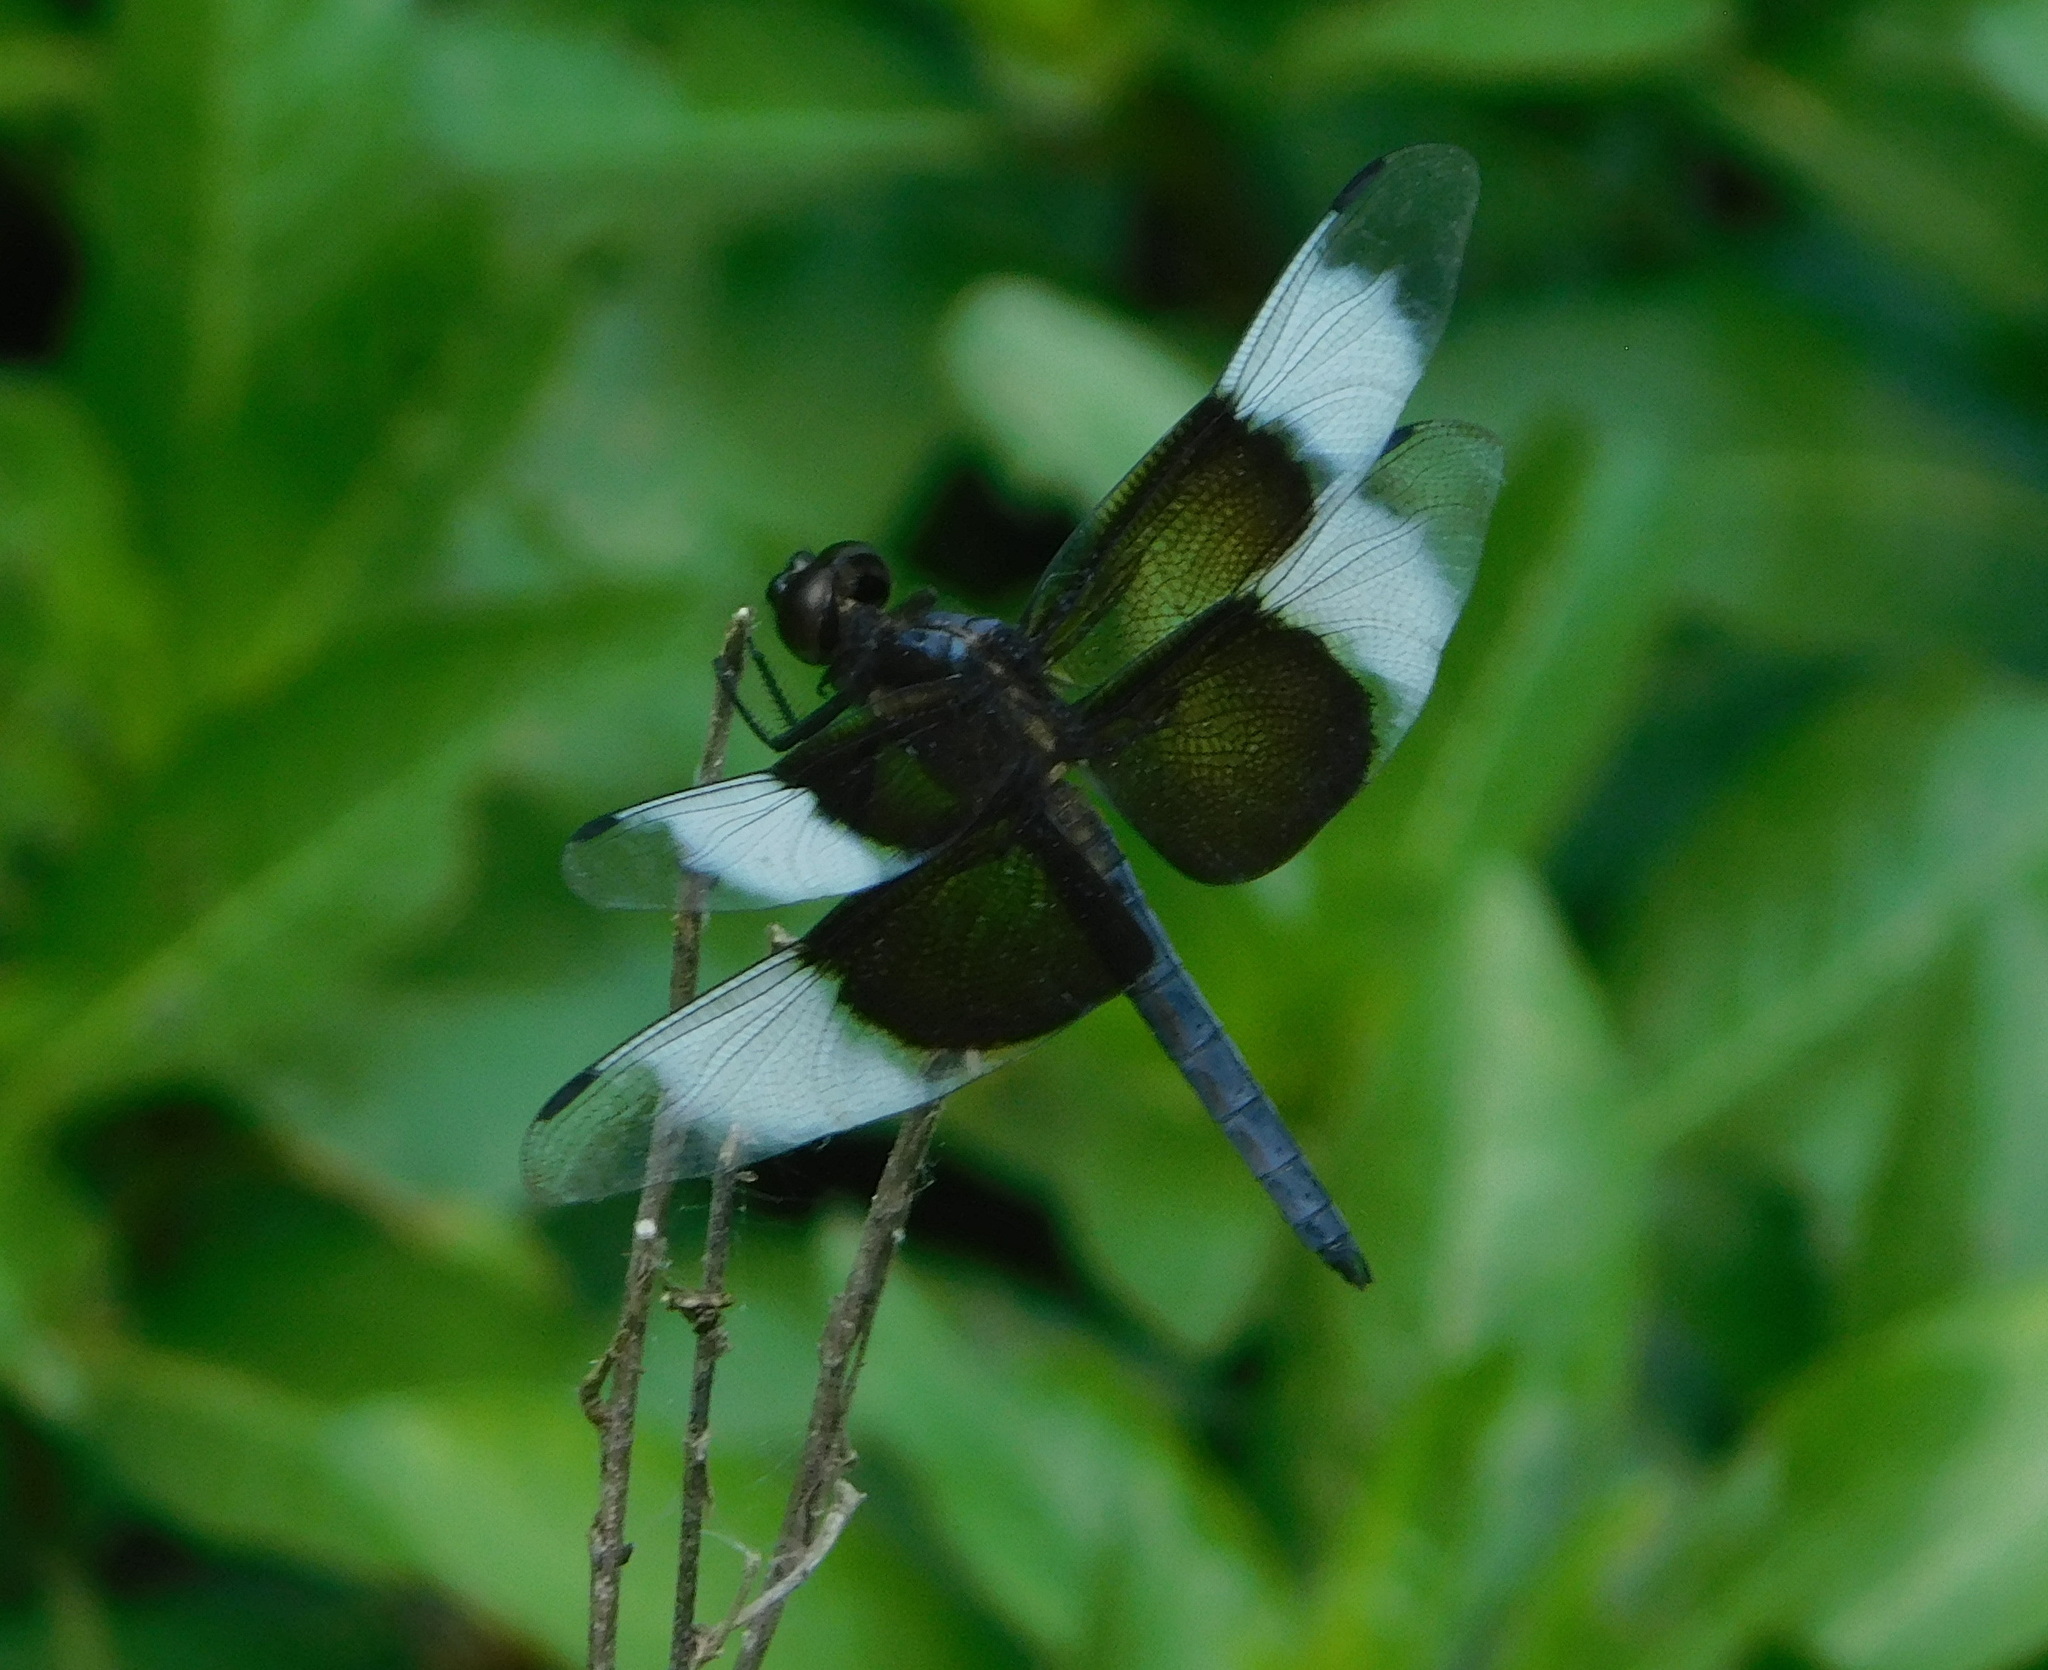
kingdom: Animalia
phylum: Arthropoda
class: Insecta
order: Odonata
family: Libellulidae
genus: Libellula
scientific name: Libellula luctuosa
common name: Widow skimmer
